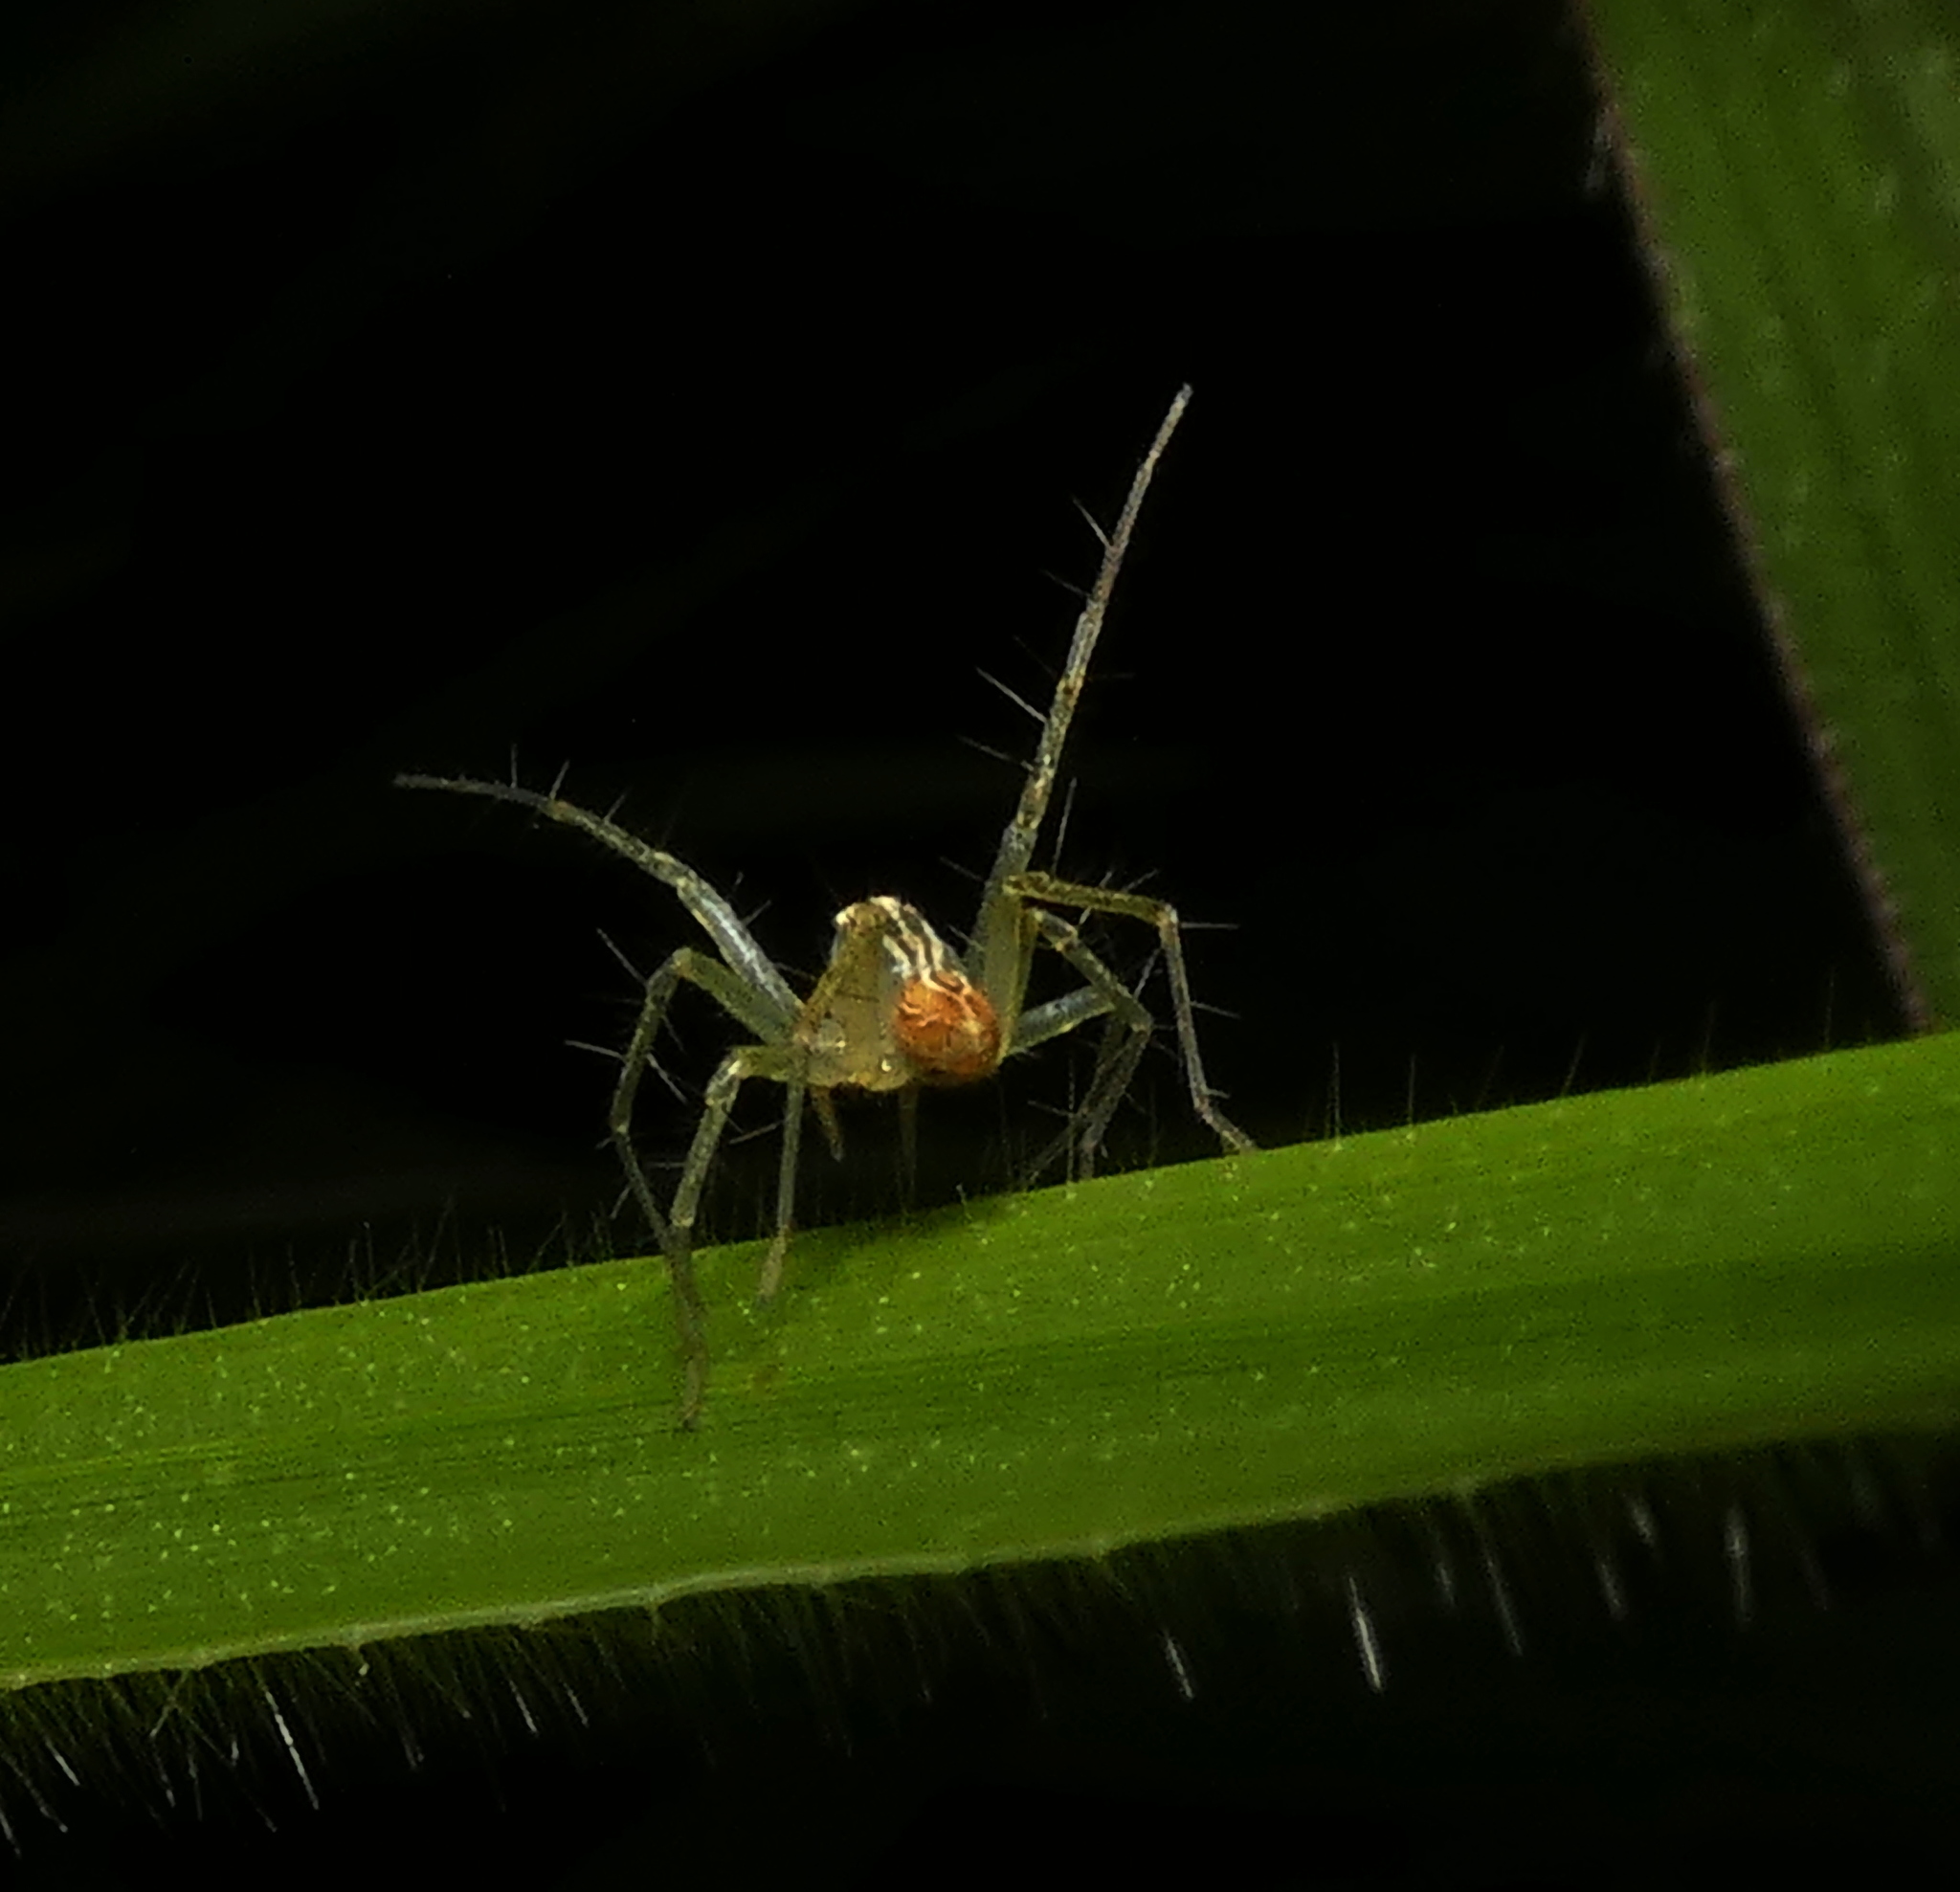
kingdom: Animalia
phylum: Arthropoda
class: Arachnida
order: Araneae
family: Oxyopidae
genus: Oxyopes
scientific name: Oxyopes salticus
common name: Lynx spiders
